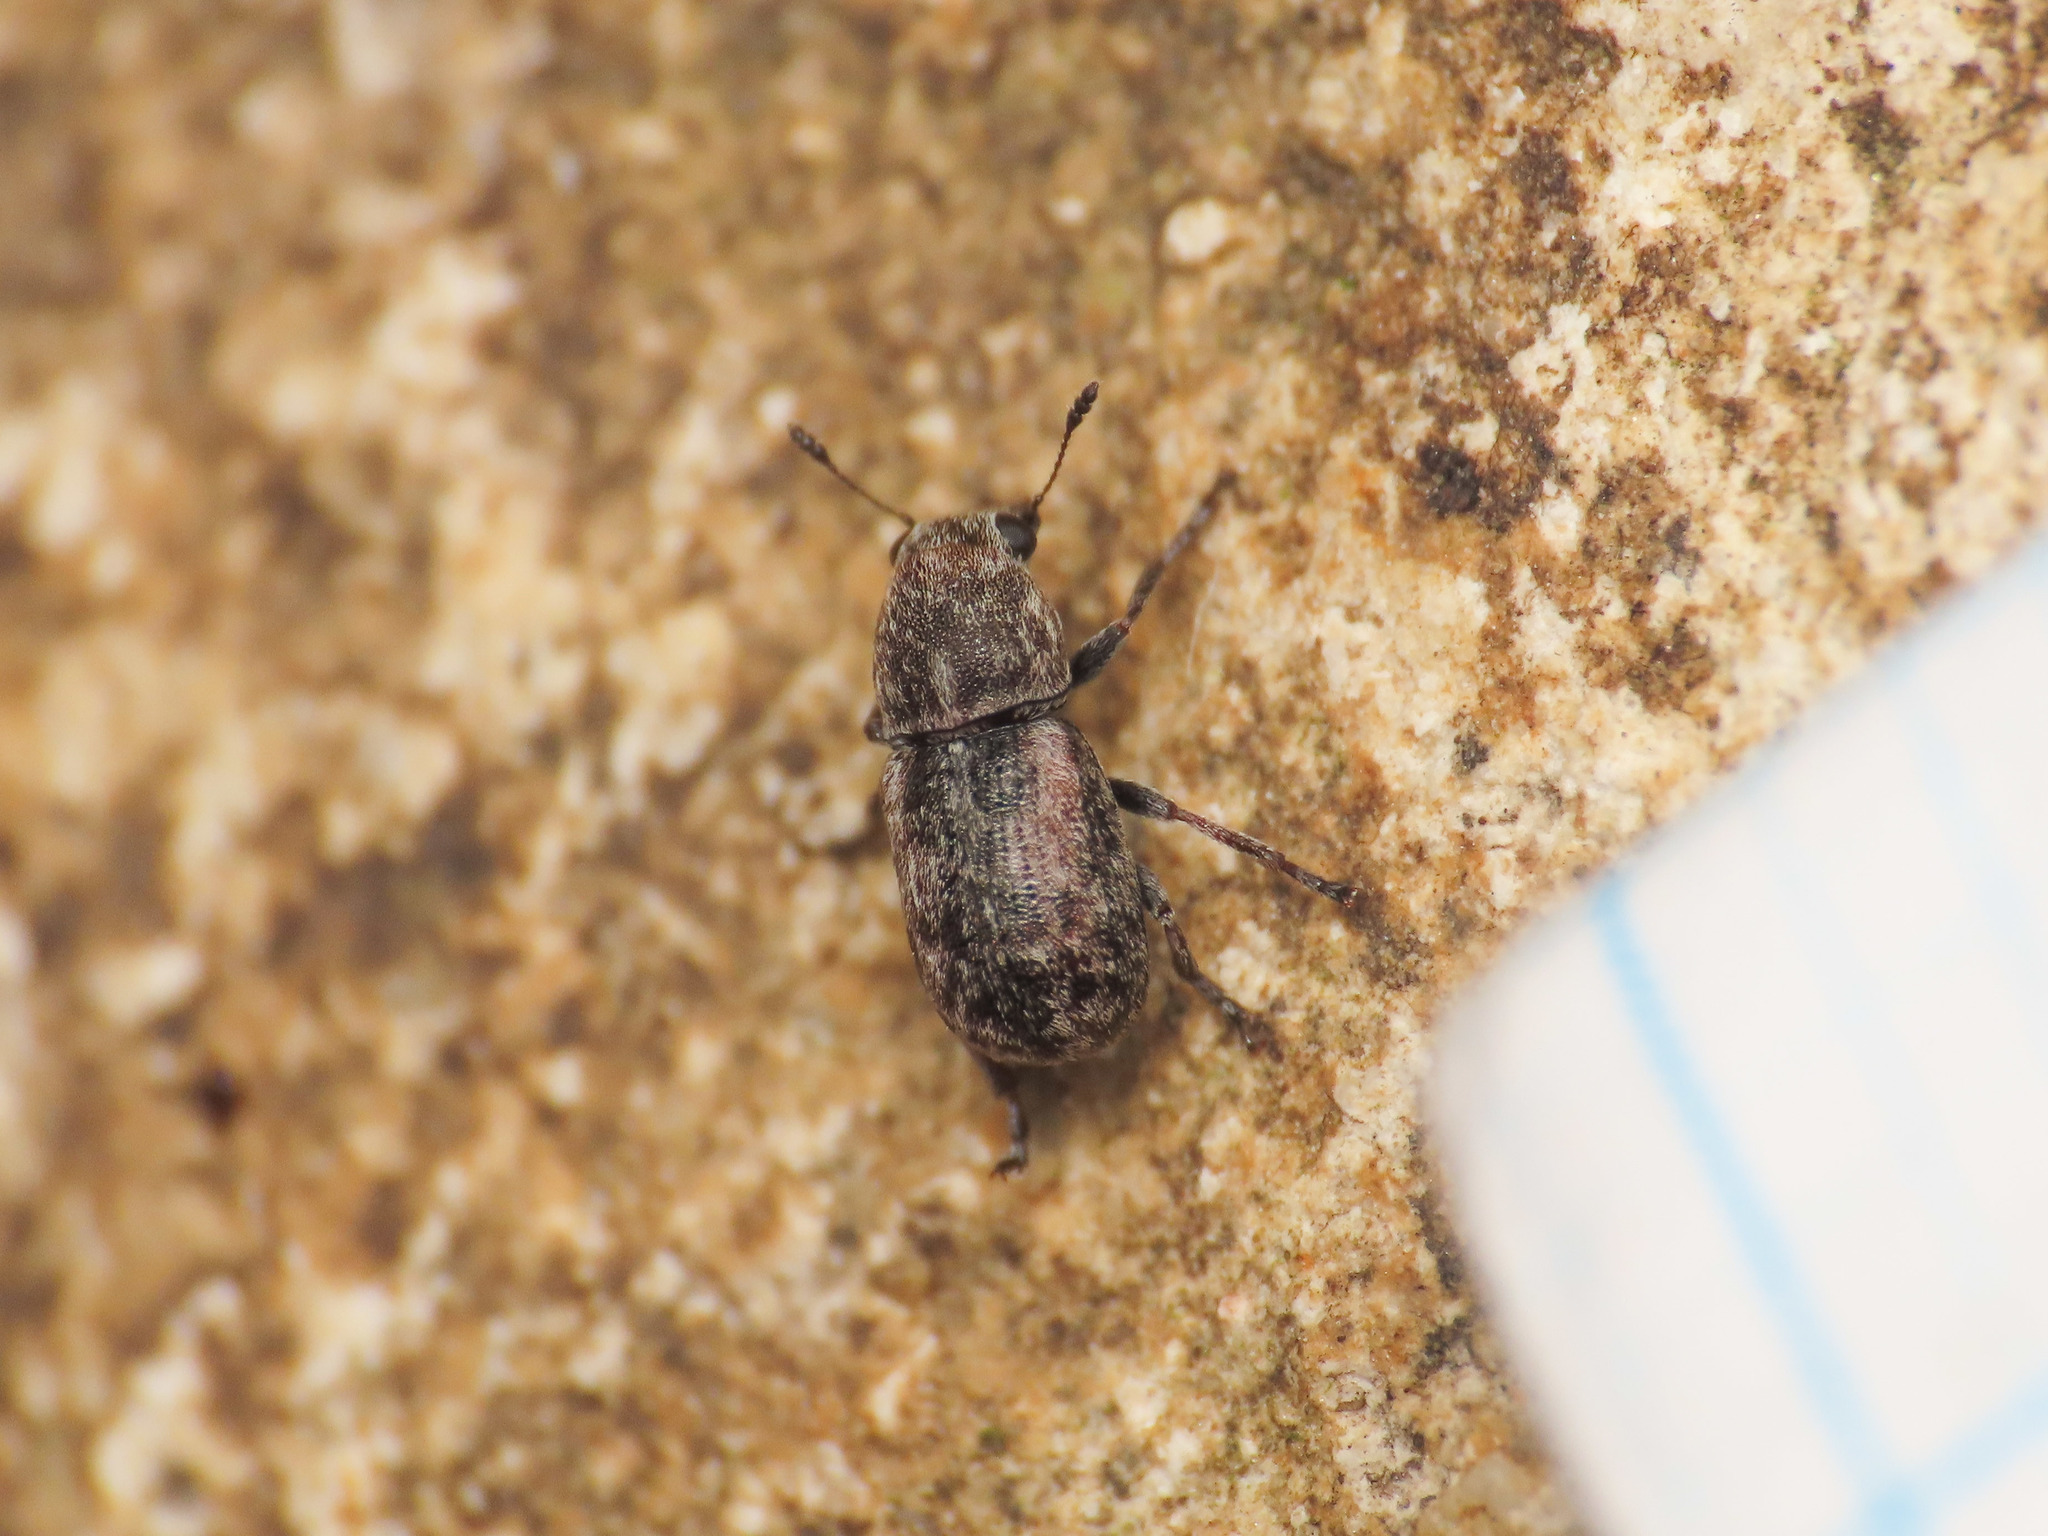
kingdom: Animalia
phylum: Arthropoda
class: Insecta
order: Coleoptera
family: Anthribidae
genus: Opanthribus
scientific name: Opanthribus tessellatus
